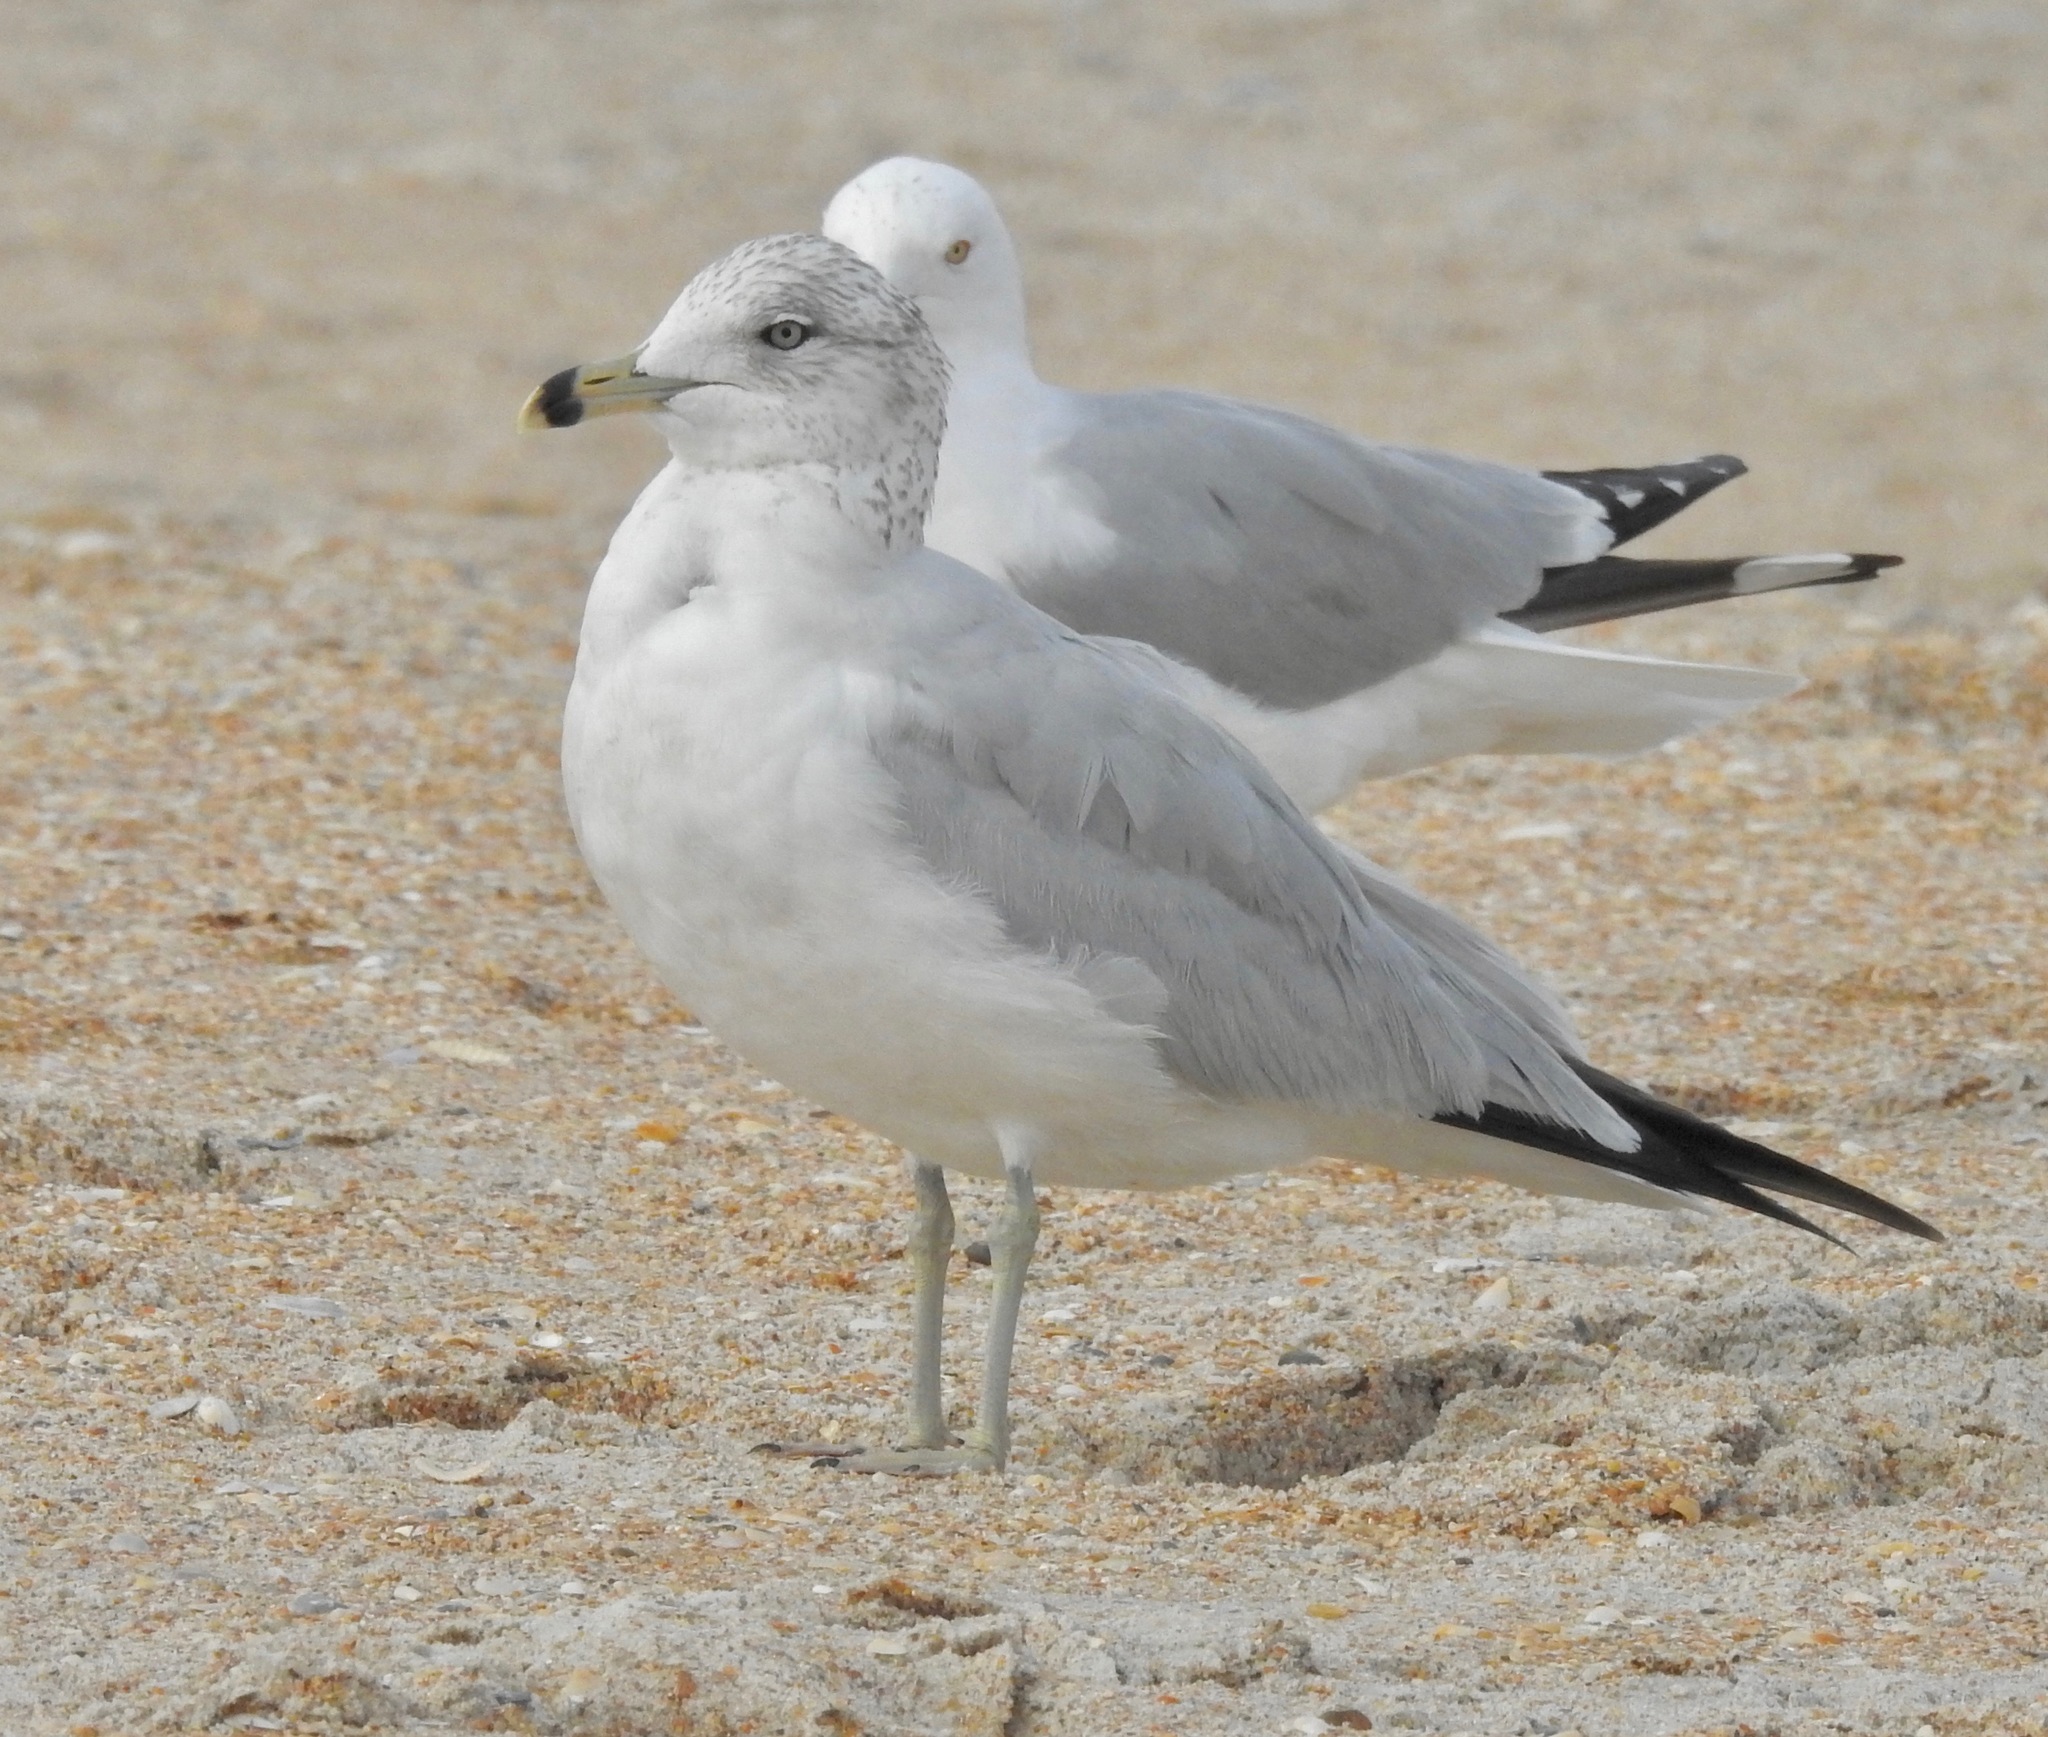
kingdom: Animalia
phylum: Chordata
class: Aves
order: Charadriiformes
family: Laridae
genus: Larus
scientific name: Larus delawarensis
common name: Ring-billed gull
